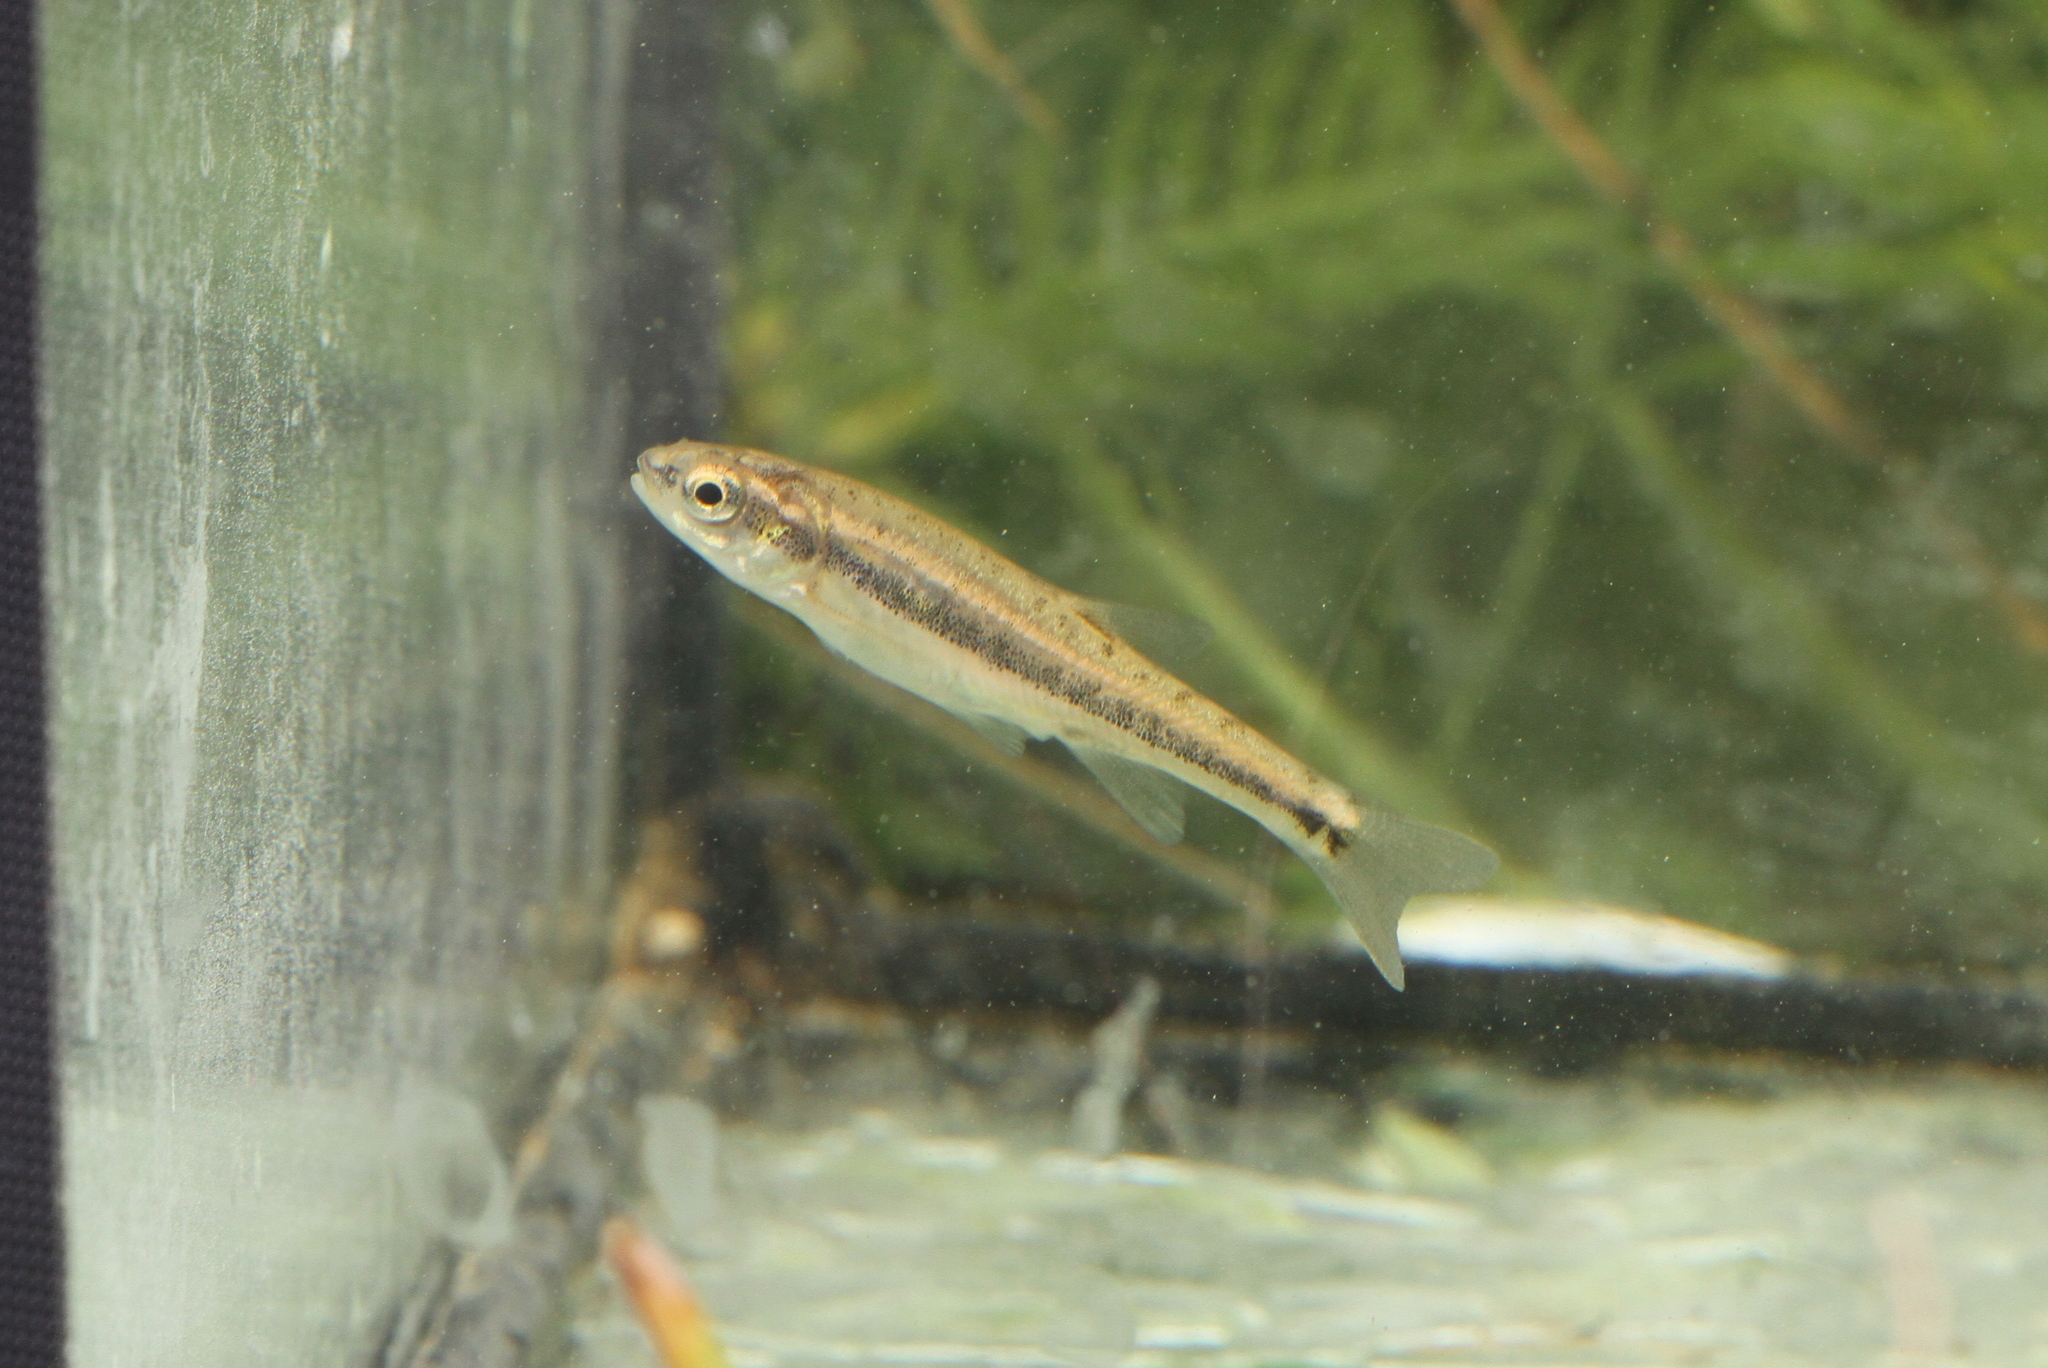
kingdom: Animalia
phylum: Chordata
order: Cypriniformes
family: Cyprinidae
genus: Phoxinus
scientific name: Phoxinus phoxinus
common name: Minnow
